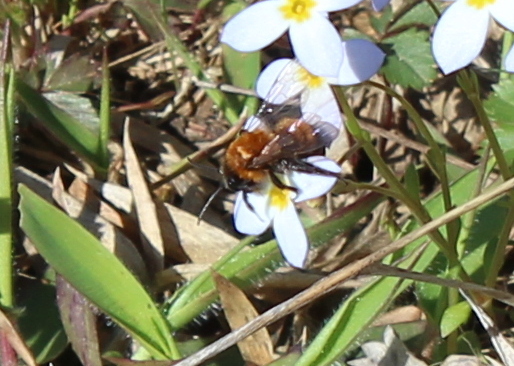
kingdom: Animalia
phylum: Arthropoda
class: Insecta
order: Hymenoptera
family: Andrenidae
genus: Andrena
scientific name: Andrena milwaukeensis
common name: Milwaukee mining bee
